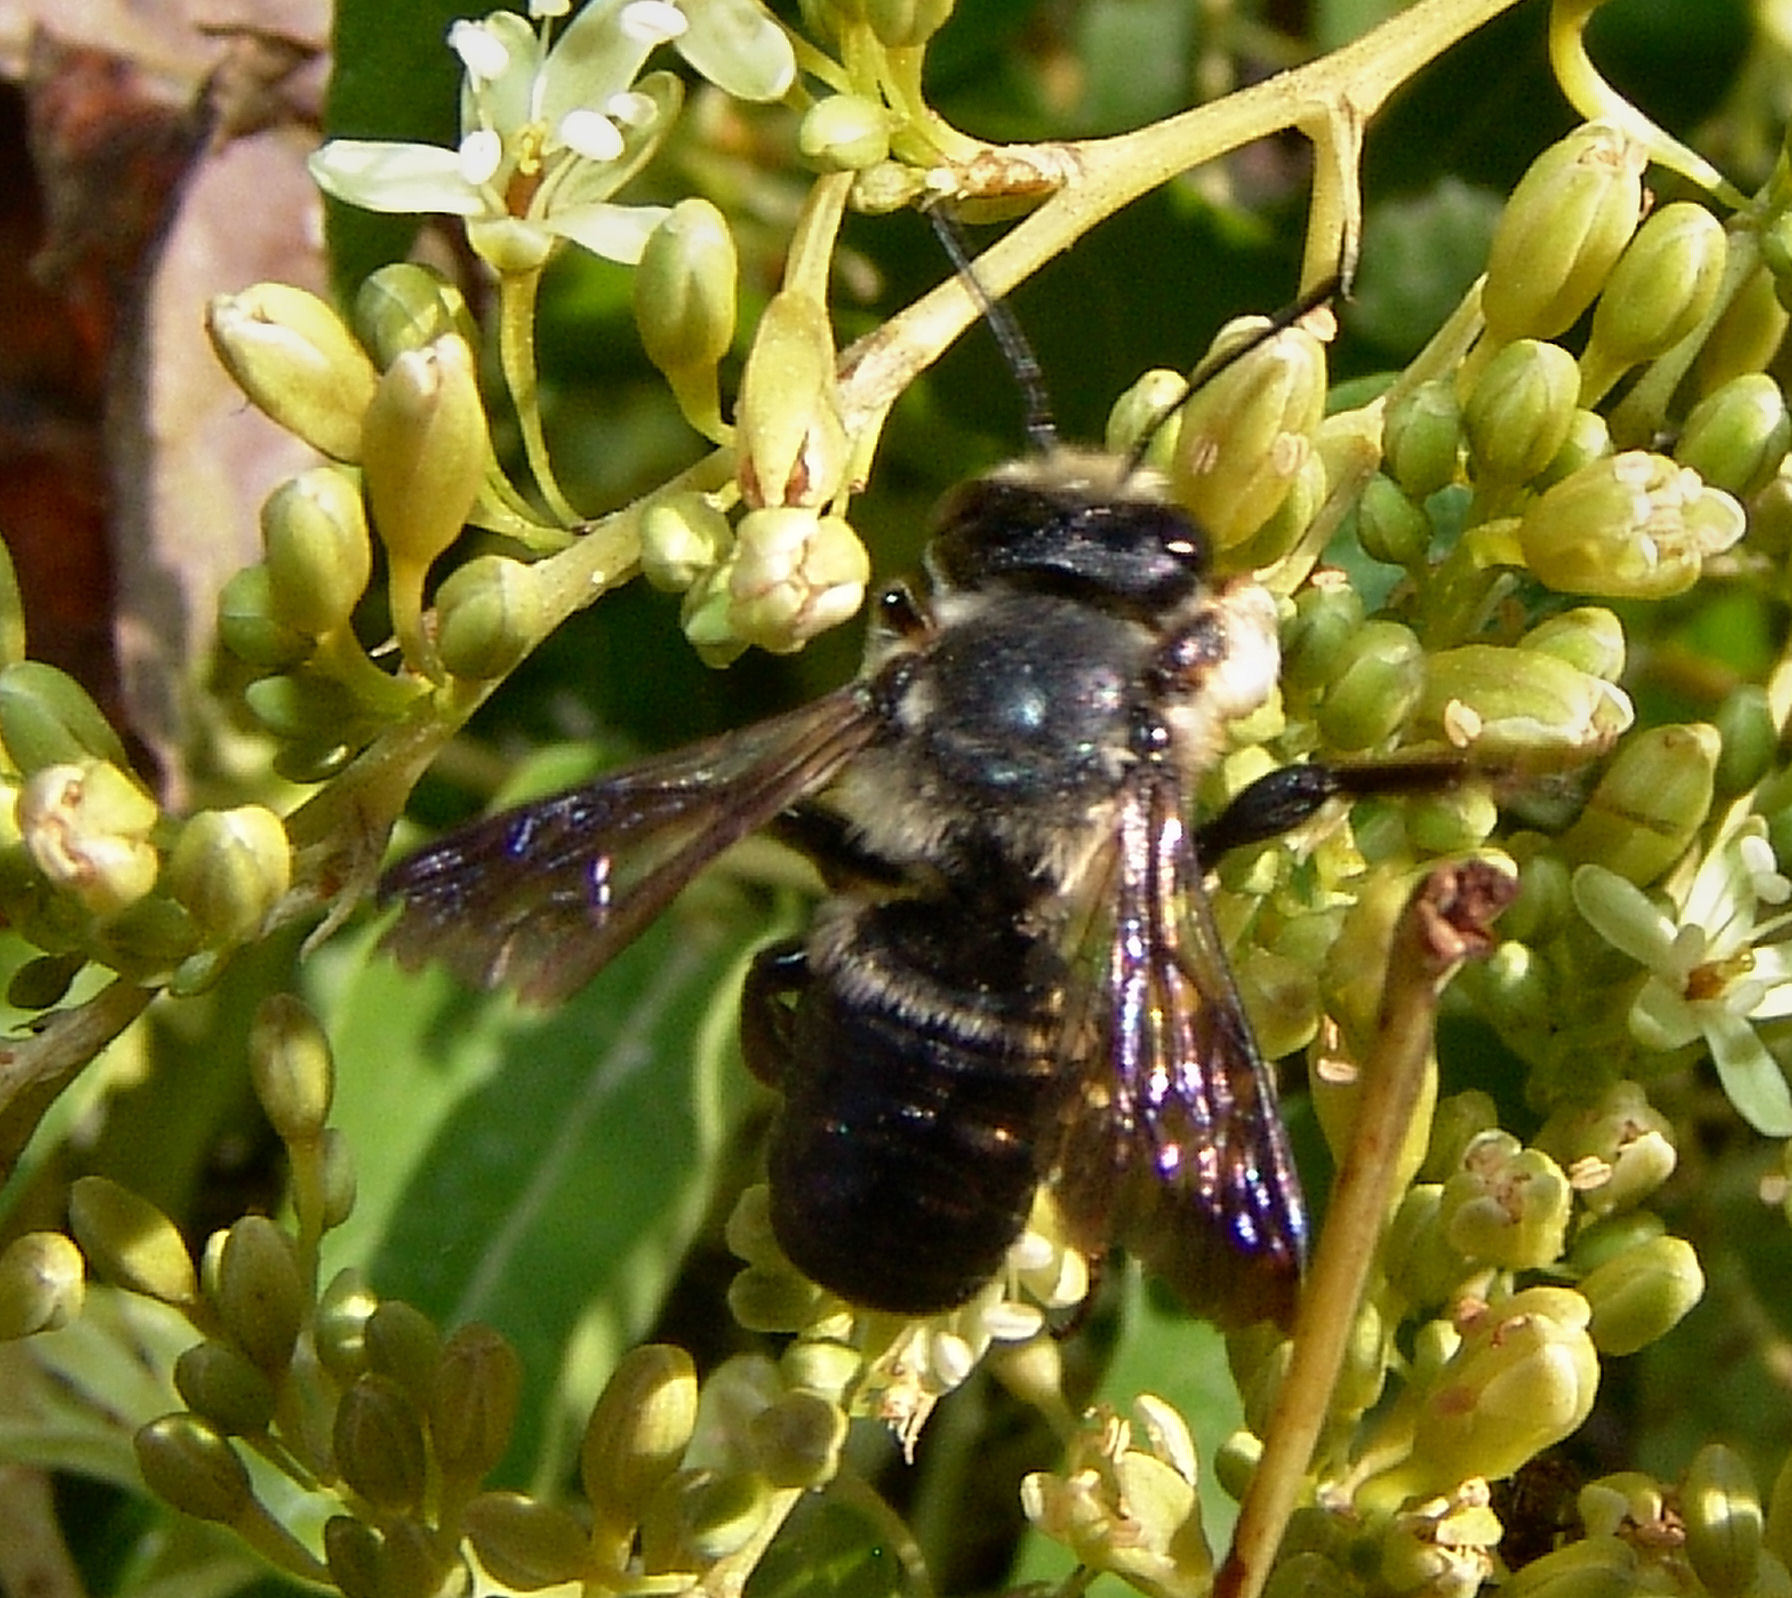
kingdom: Animalia
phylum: Arthropoda
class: Insecta
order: Hymenoptera
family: Megachilidae
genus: Megachile
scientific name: Megachile xylocopoides
